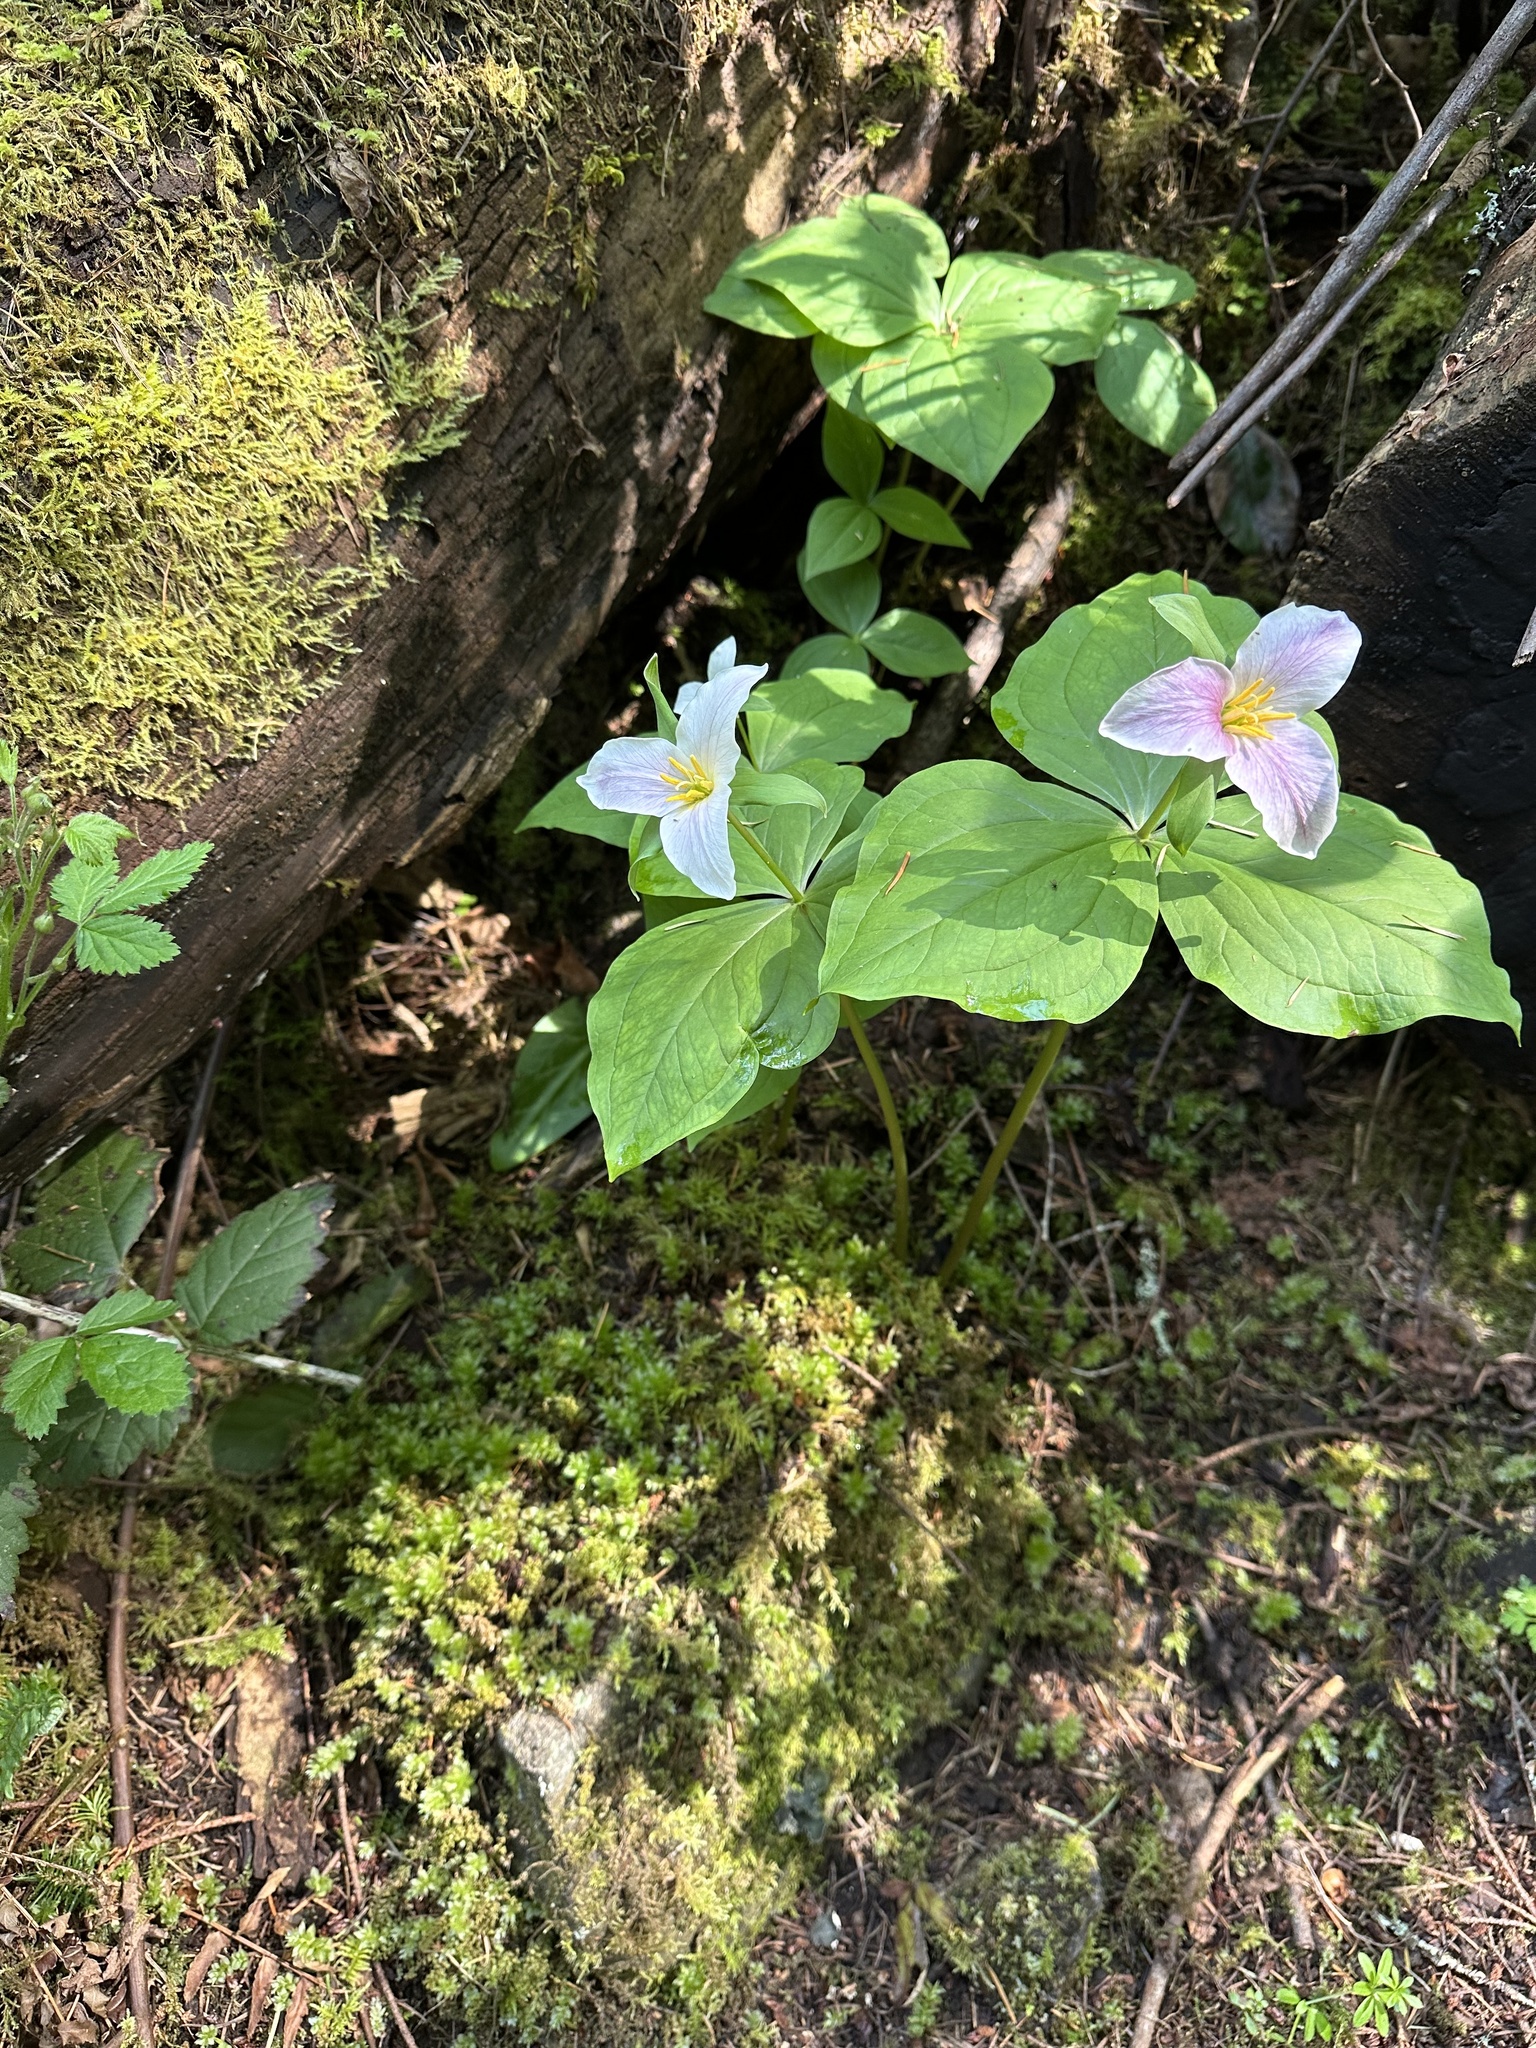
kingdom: Plantae
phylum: Tracheophyta
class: Liliopsida
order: Liliales
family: Melanthiaceae
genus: Trillium
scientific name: Trillium ovatum
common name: Pacific trillium
